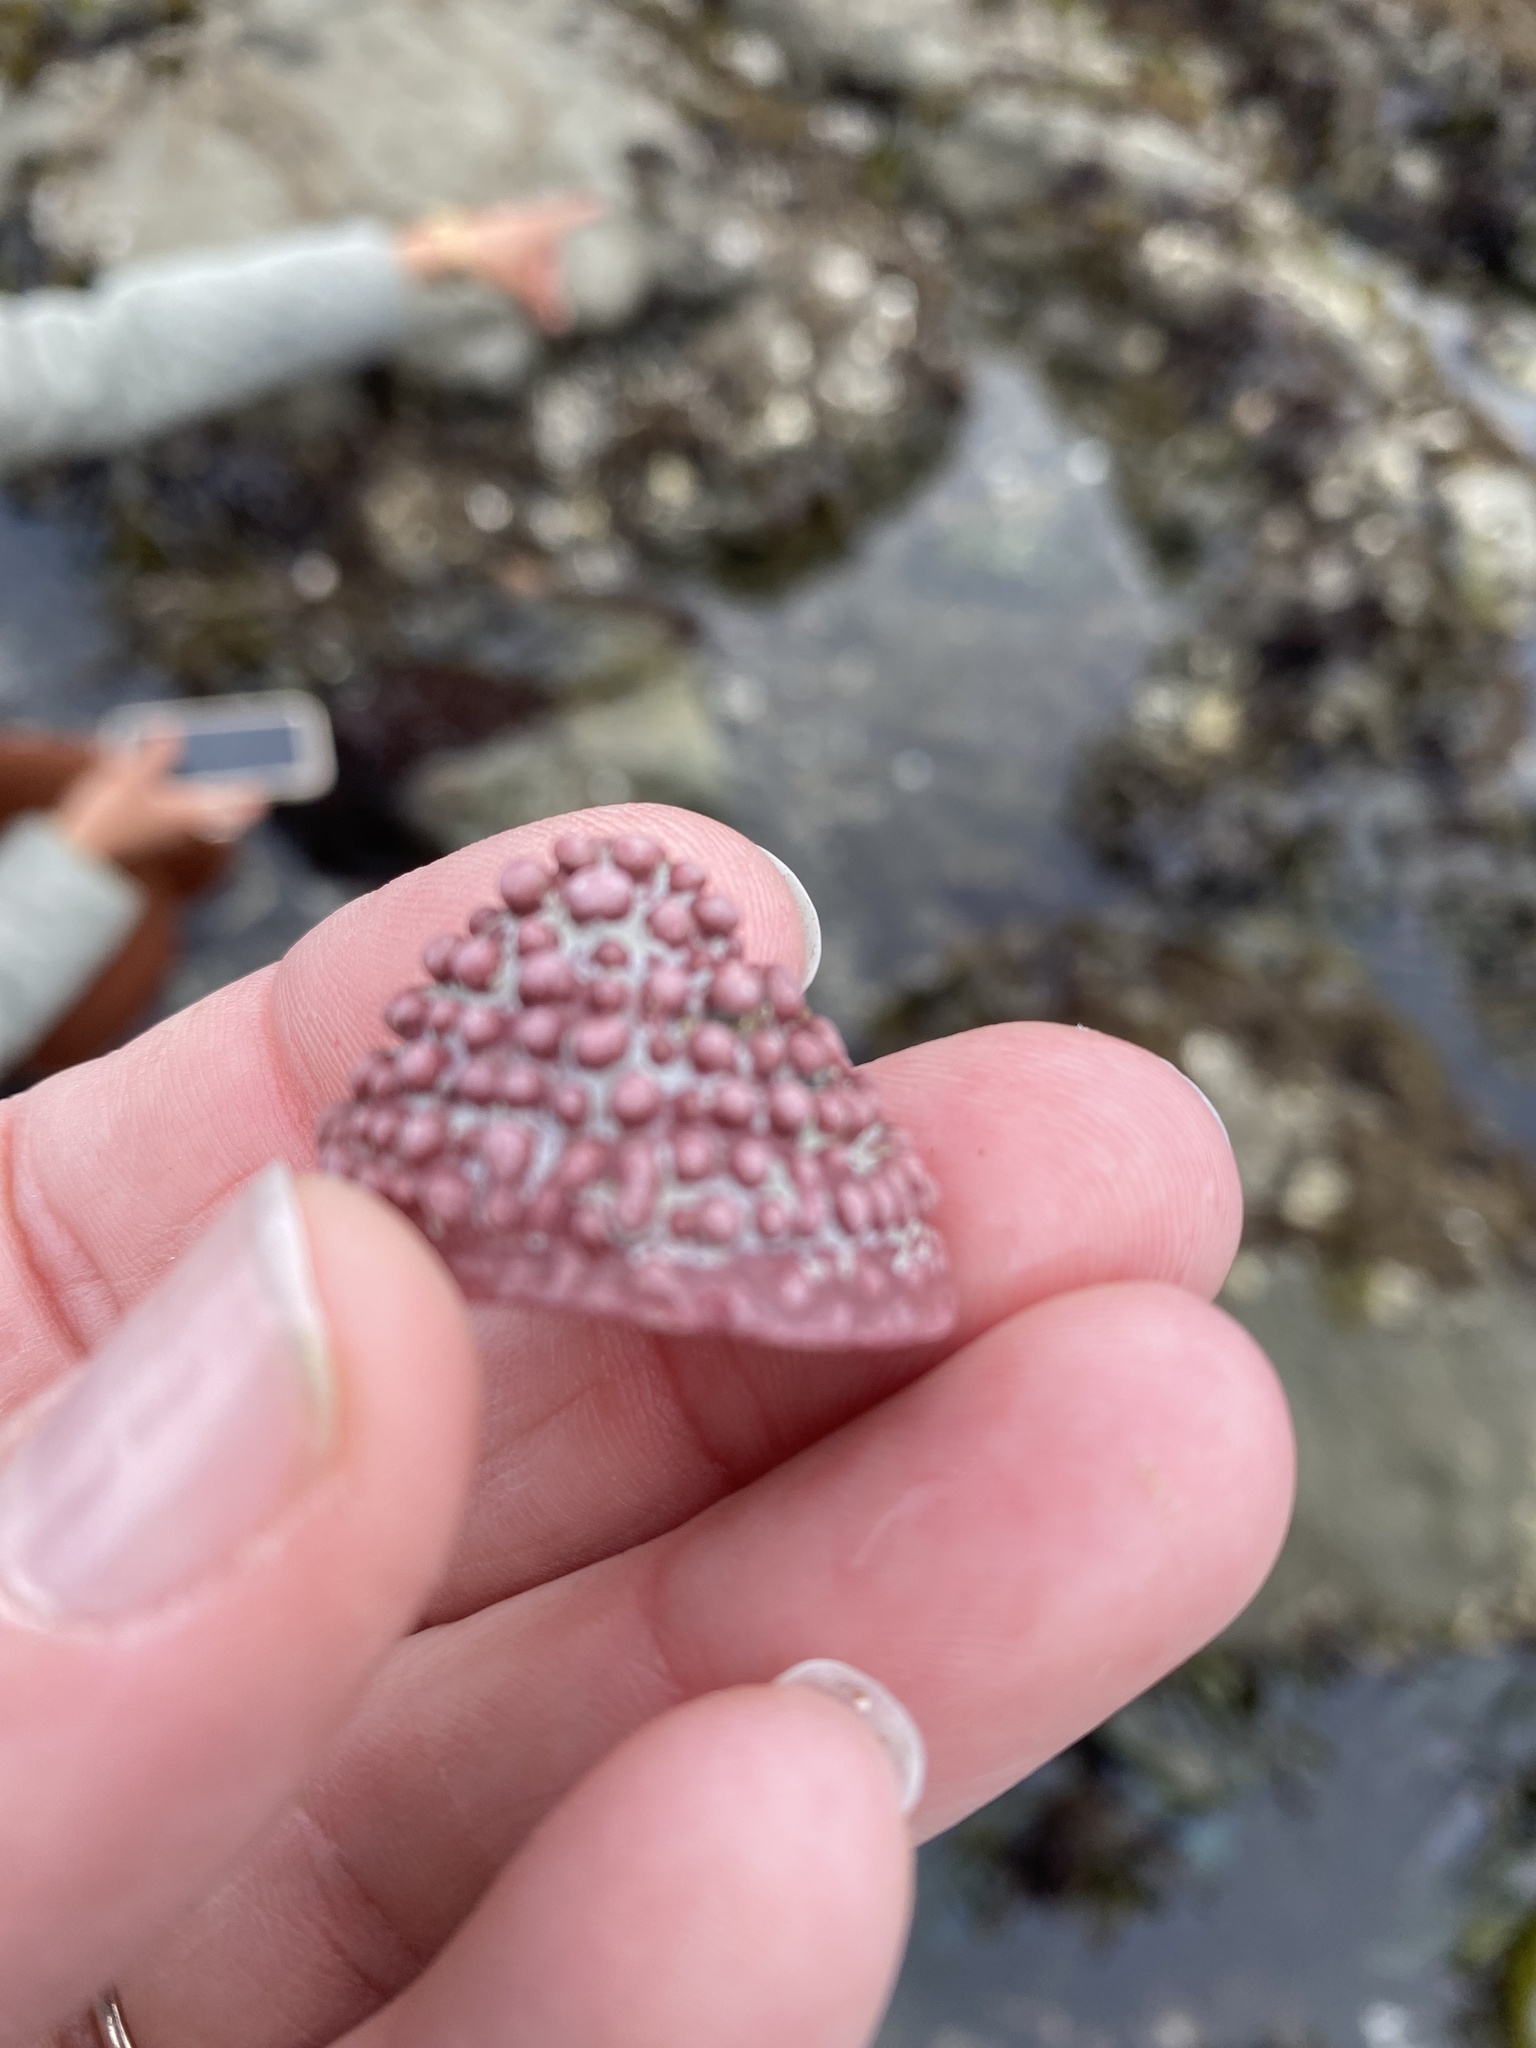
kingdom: Animalia
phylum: Mollusca
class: Gastropoda
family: Acmaeidae
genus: Acmaea
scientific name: Acmaea mitra
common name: Pacific white cap limpet
